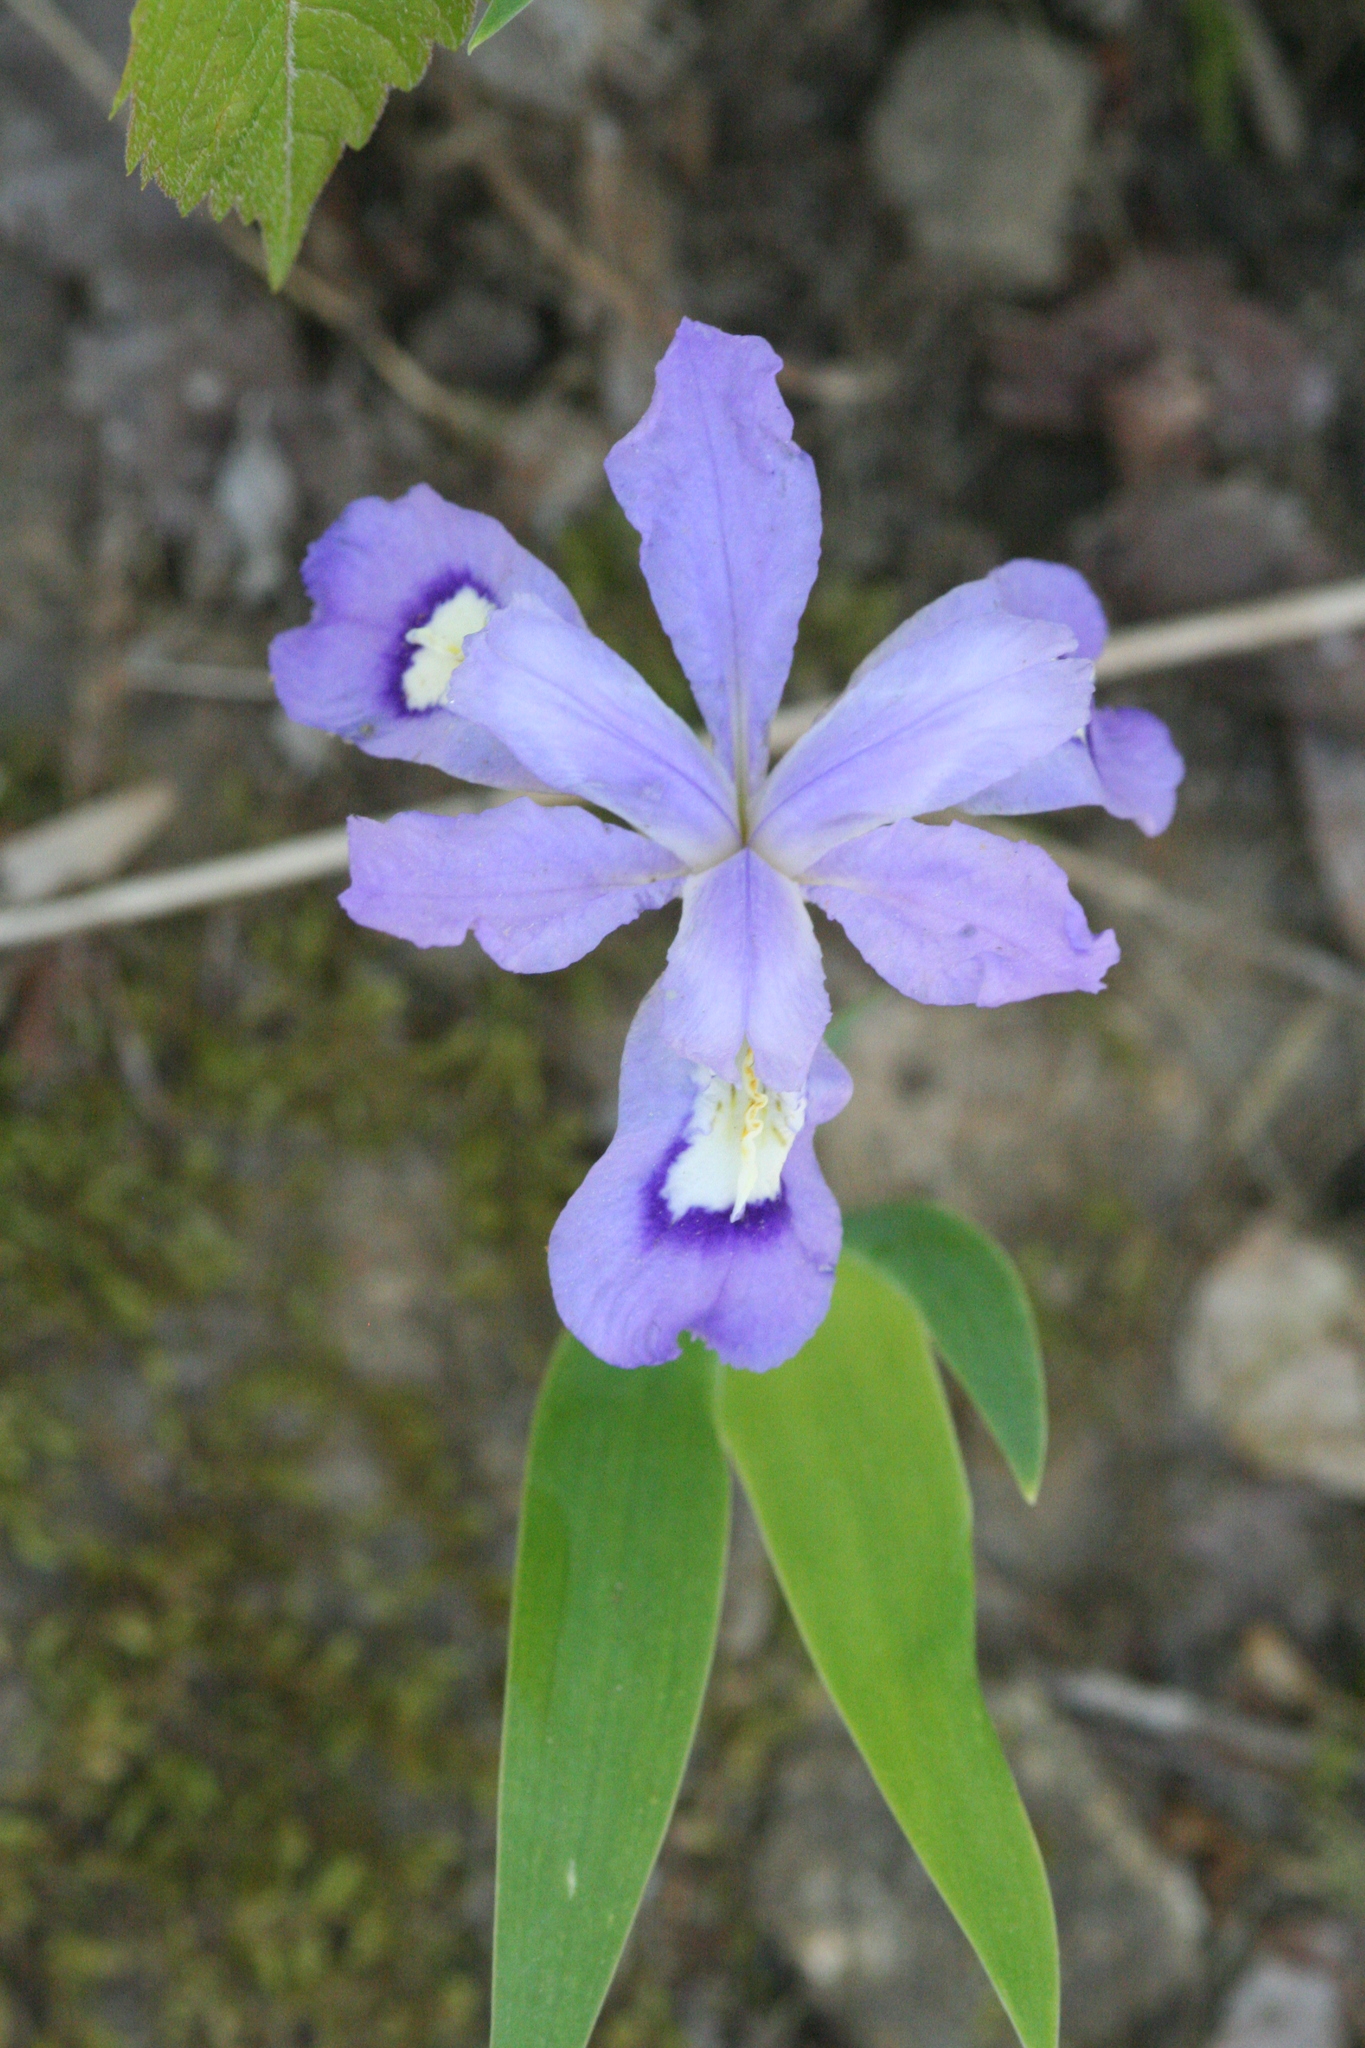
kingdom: Plantae
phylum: Tracheophyta
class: Liliopsida
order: Asparagales
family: Iridaceae
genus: Iris
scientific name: Iris cristata
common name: Crested iris
